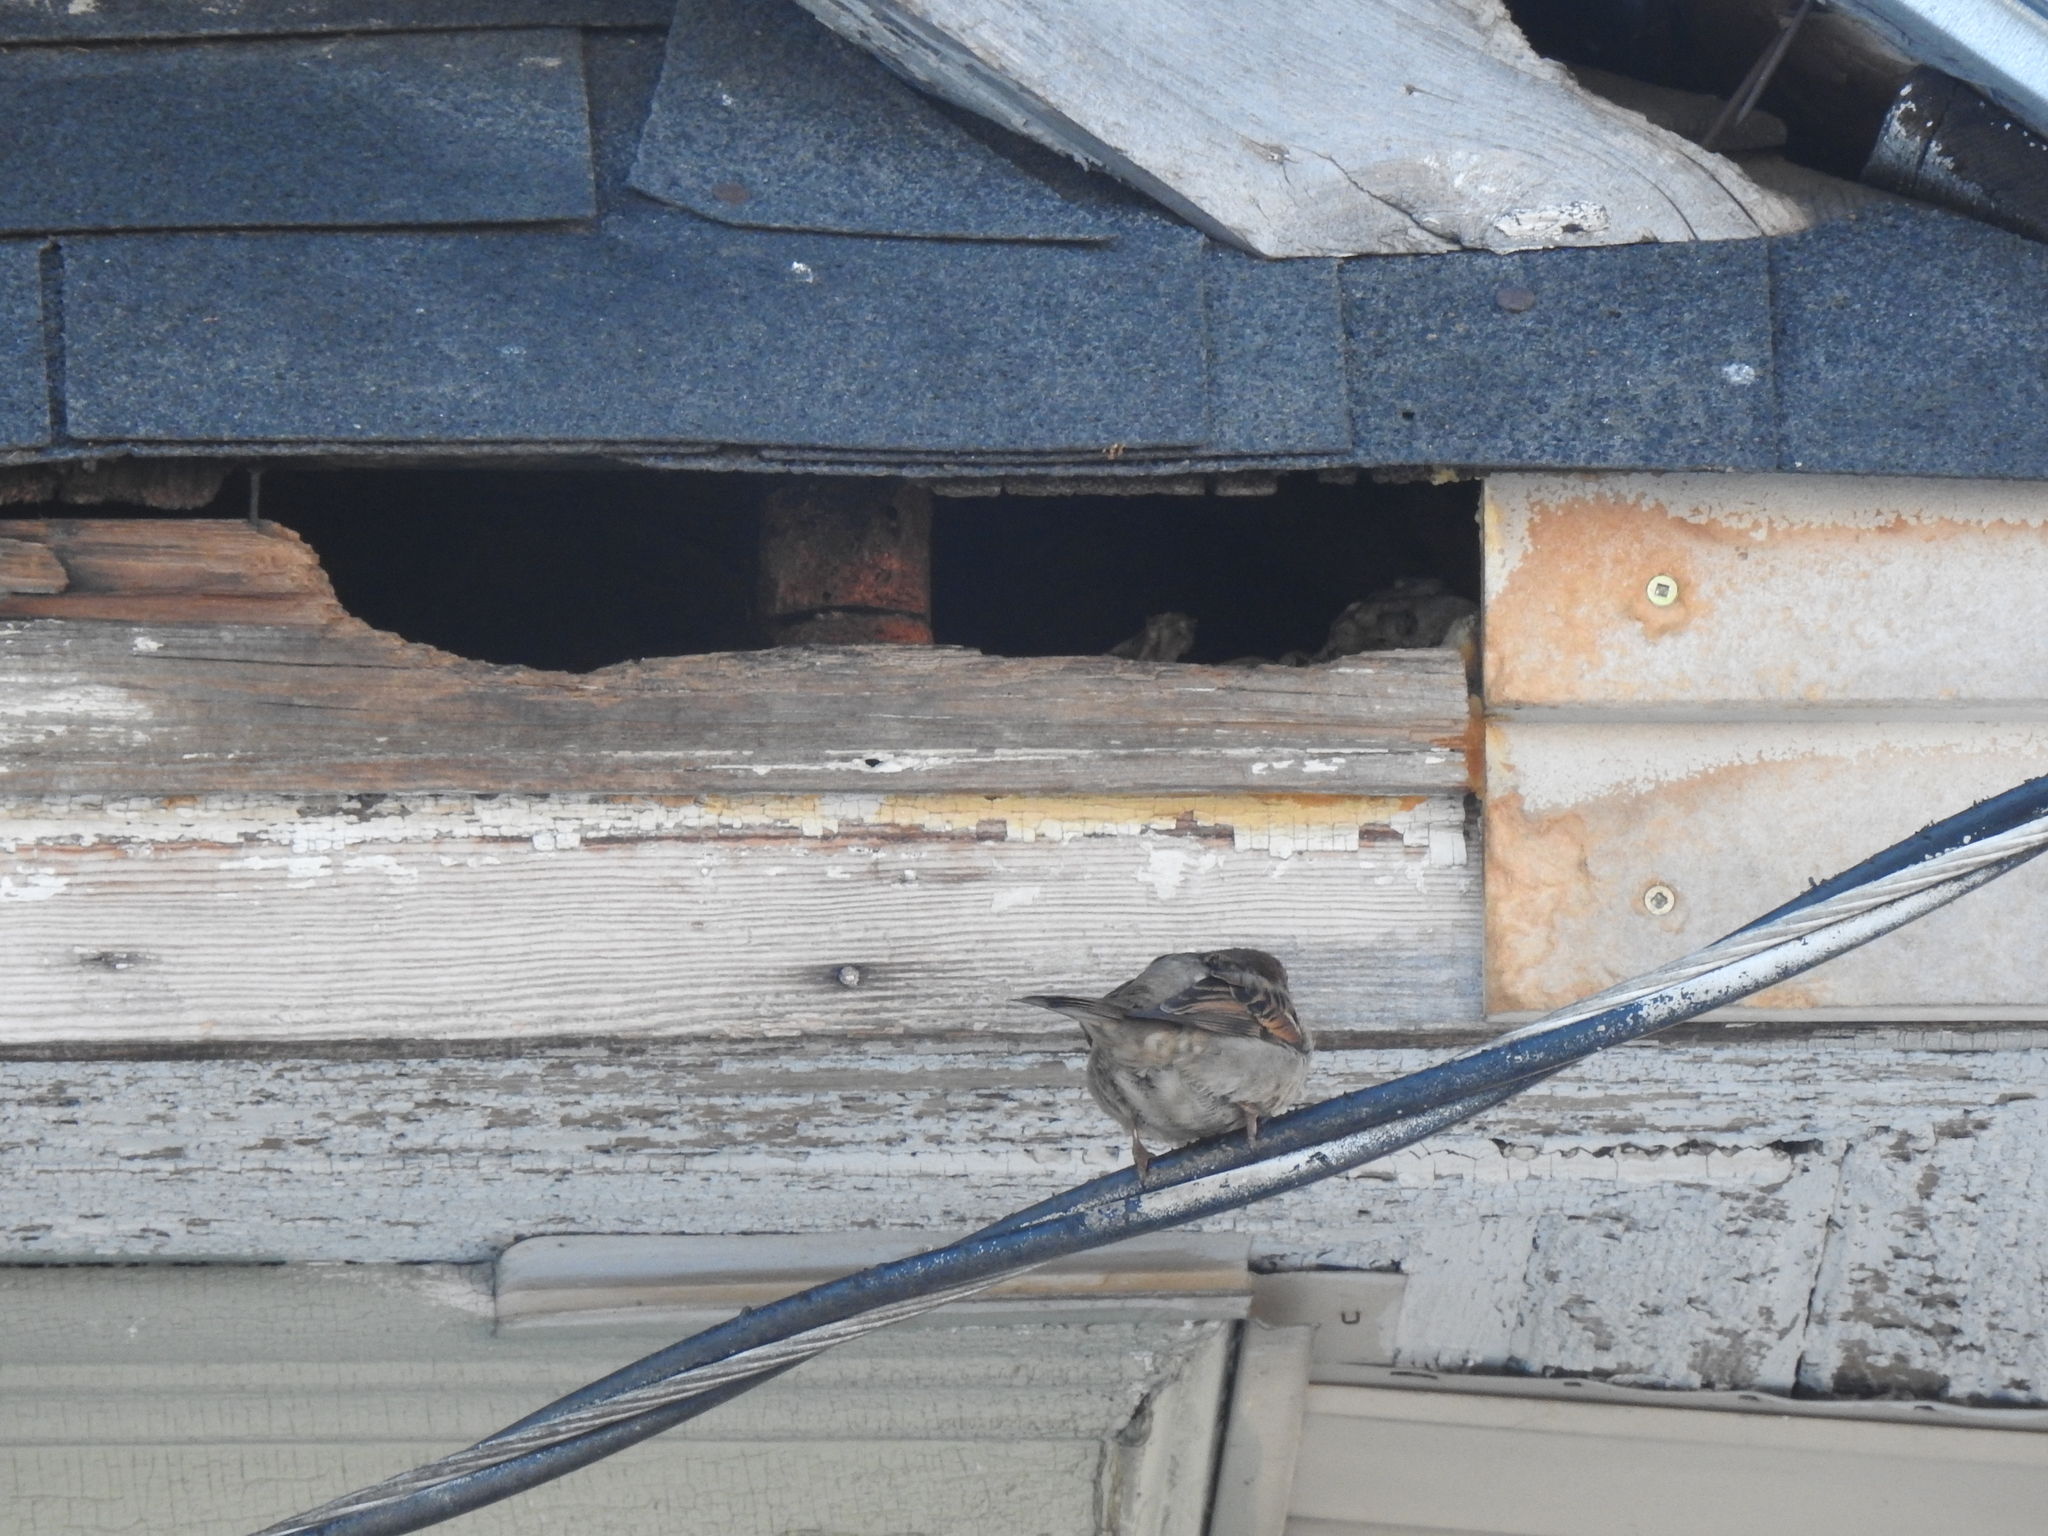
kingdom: Animalia
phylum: Chordata
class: Aves
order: Passeriformes
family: Passeridae
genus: Passer
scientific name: Passer domesticus
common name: House sparrow
